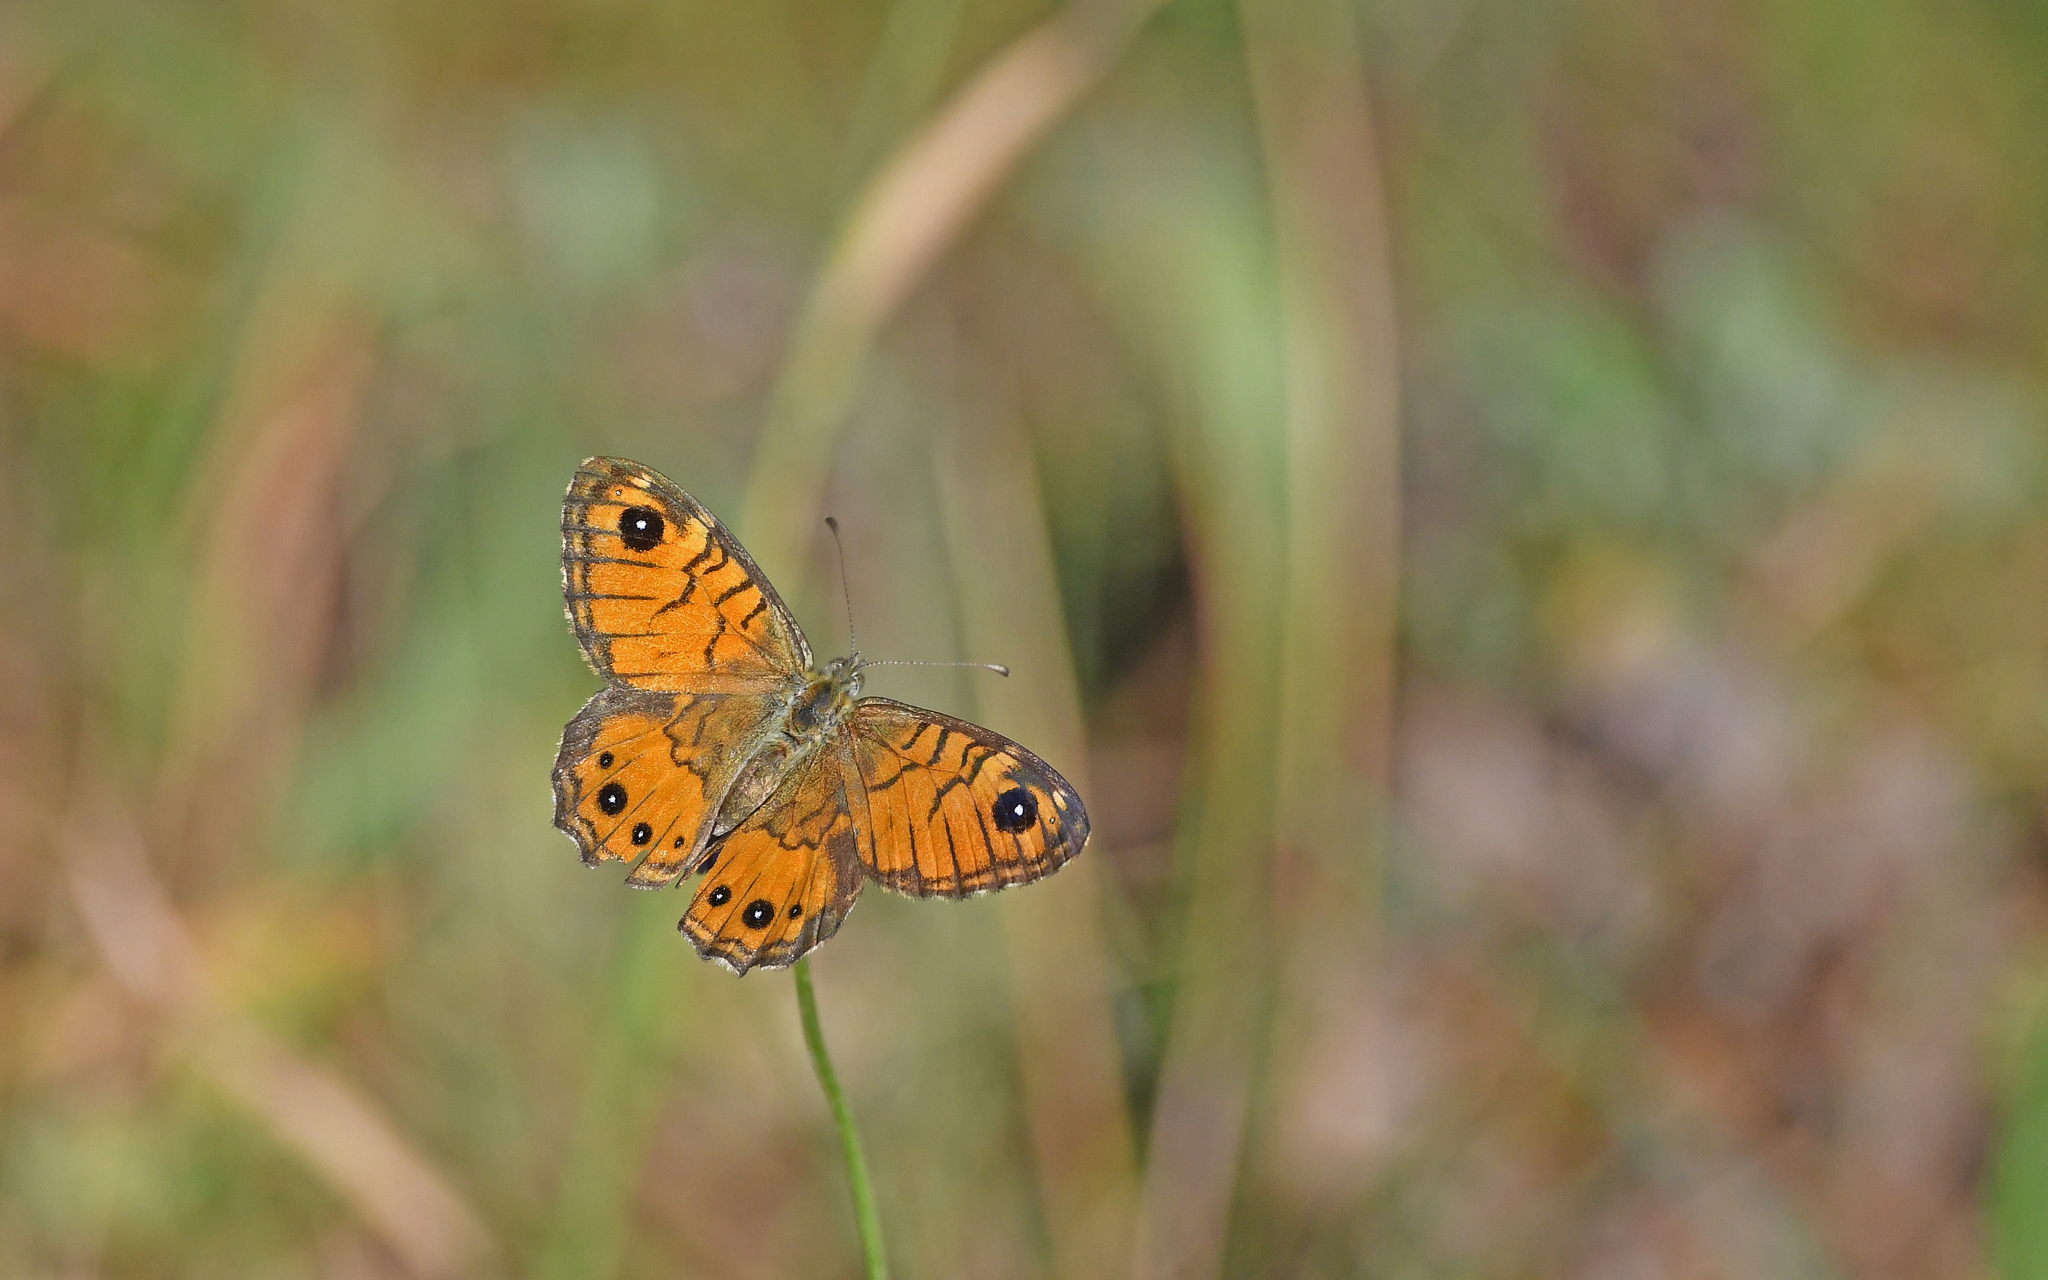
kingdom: Animalia
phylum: Arthropoda
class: Insecta
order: Lepidoptera
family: Nymphalidae
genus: Pararge
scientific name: Pararge Lasiommata paramegaera
